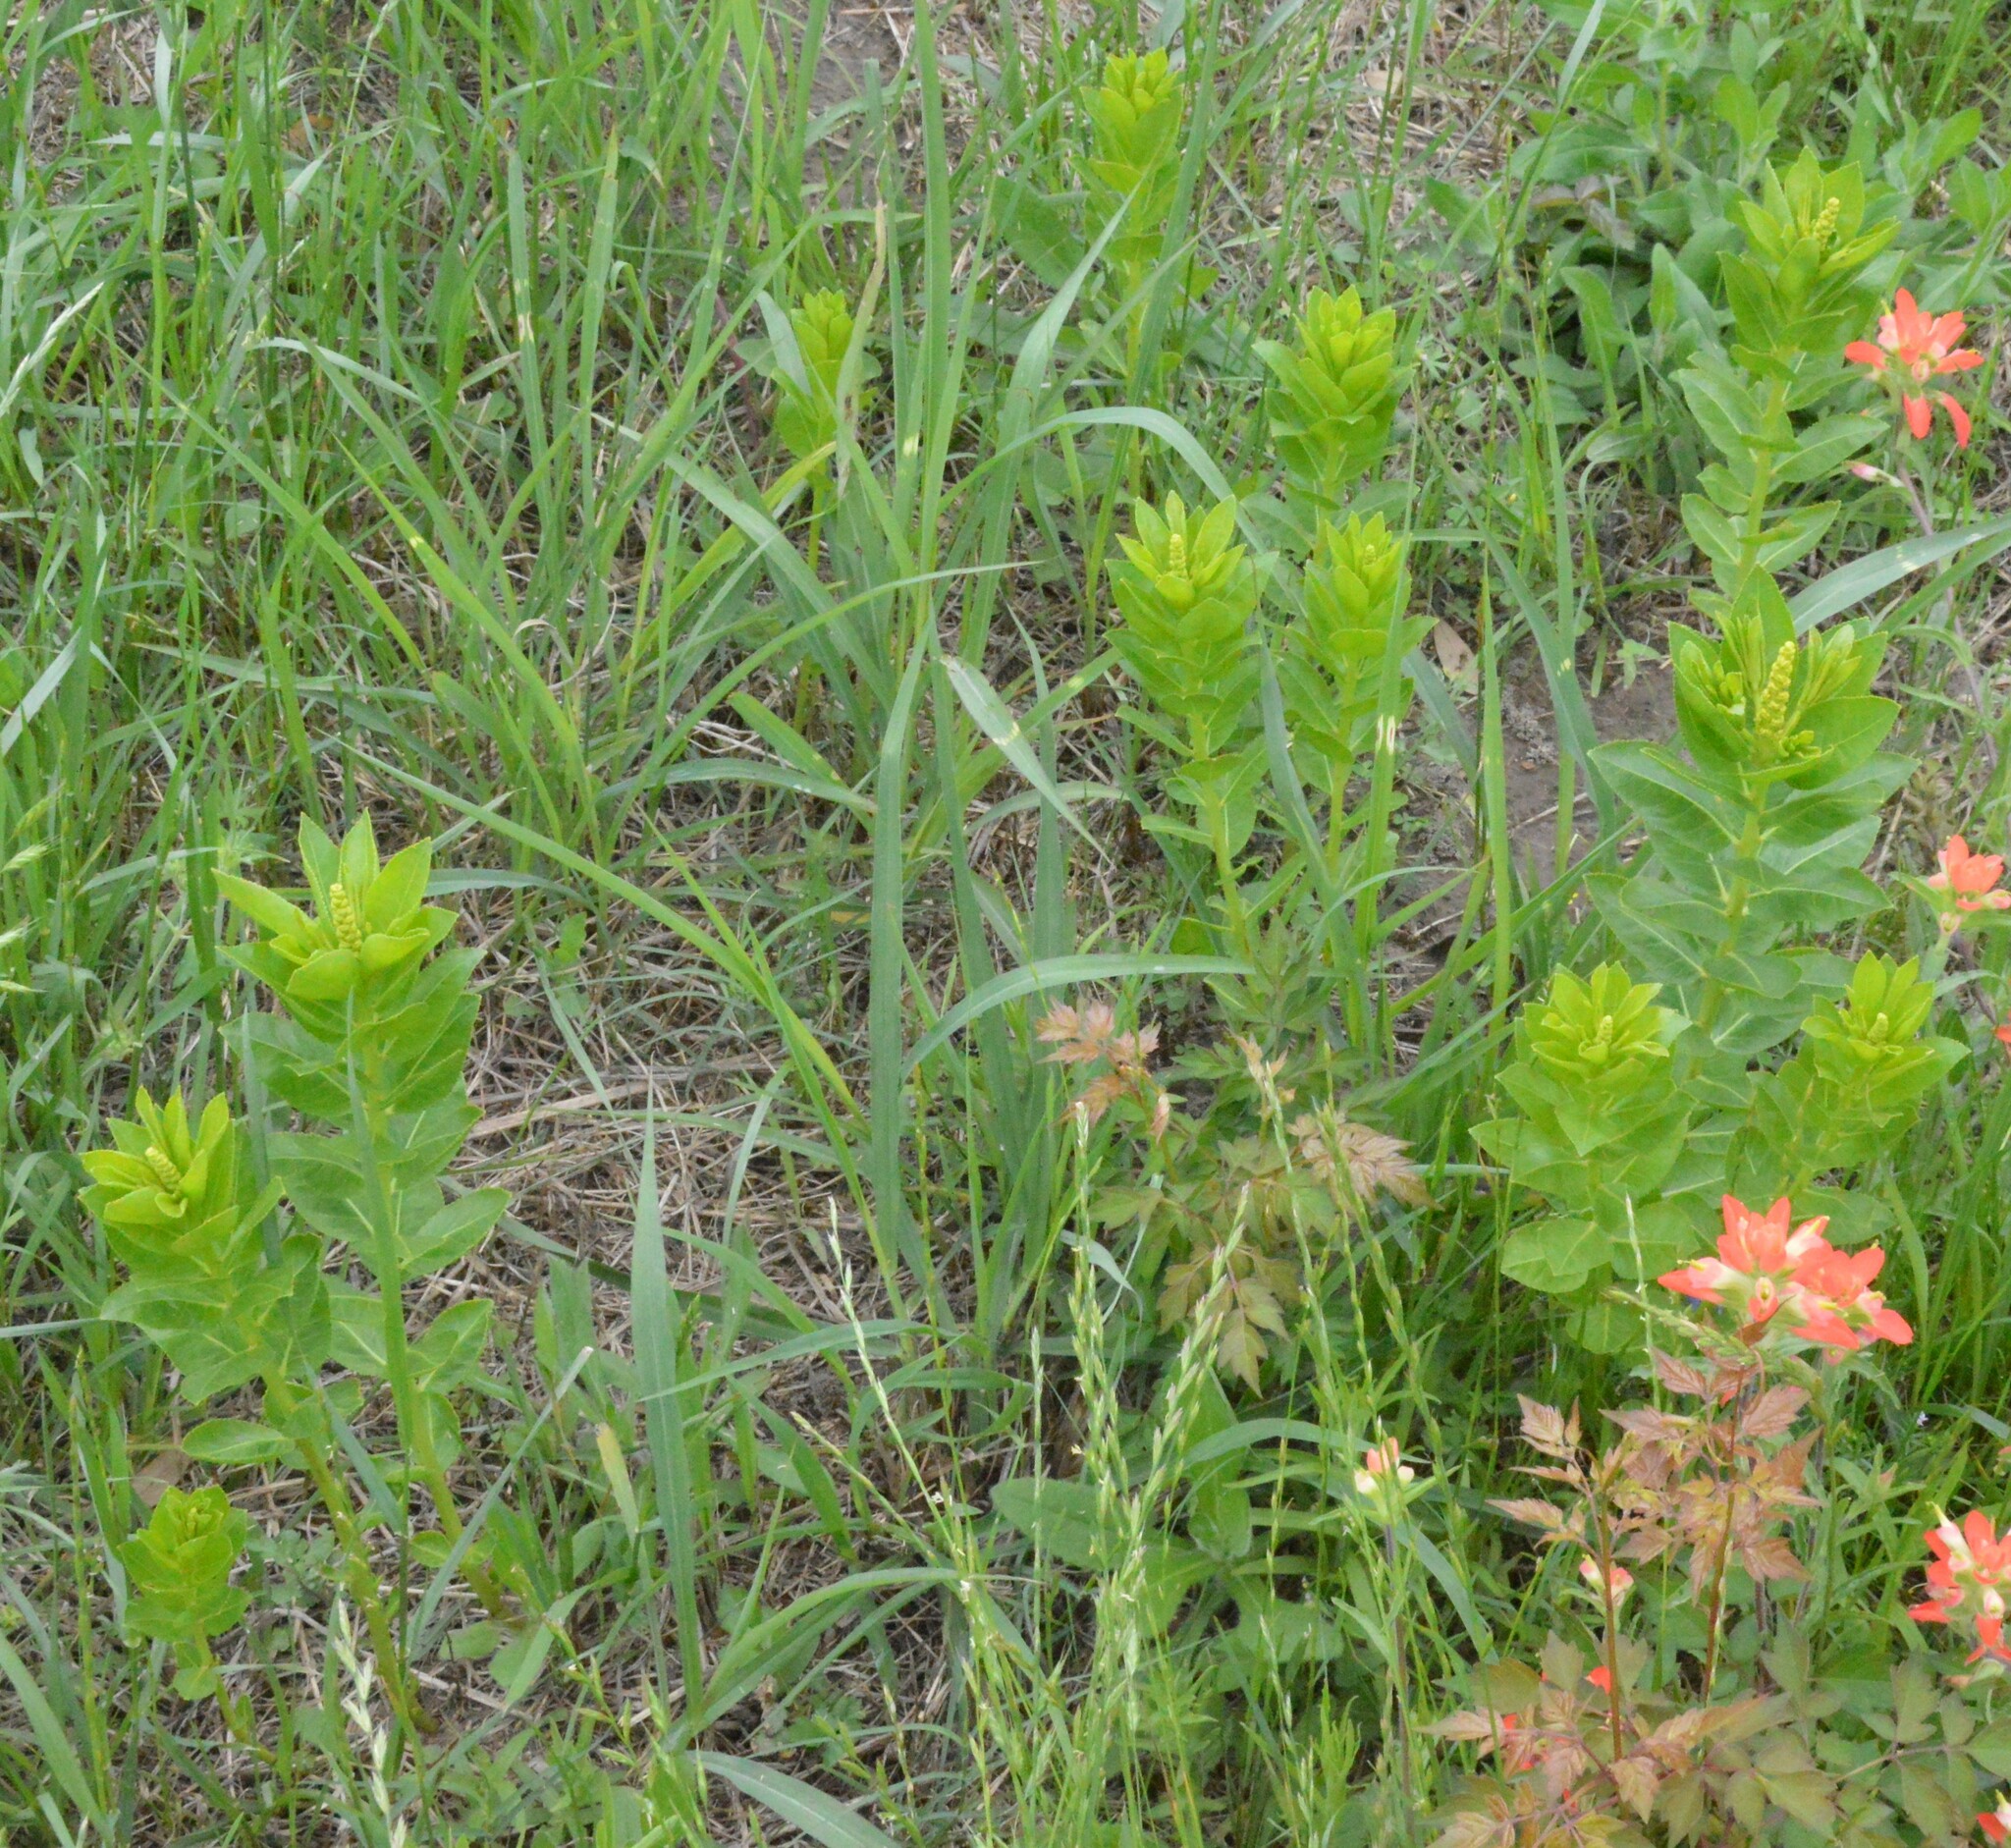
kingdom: Plantae
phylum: Tracheophyta
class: Magnoliopsida
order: Malpighiales
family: Euphorbiaceae
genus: Stillingia
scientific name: Stillingia sylvatica
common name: Queen's-delight
